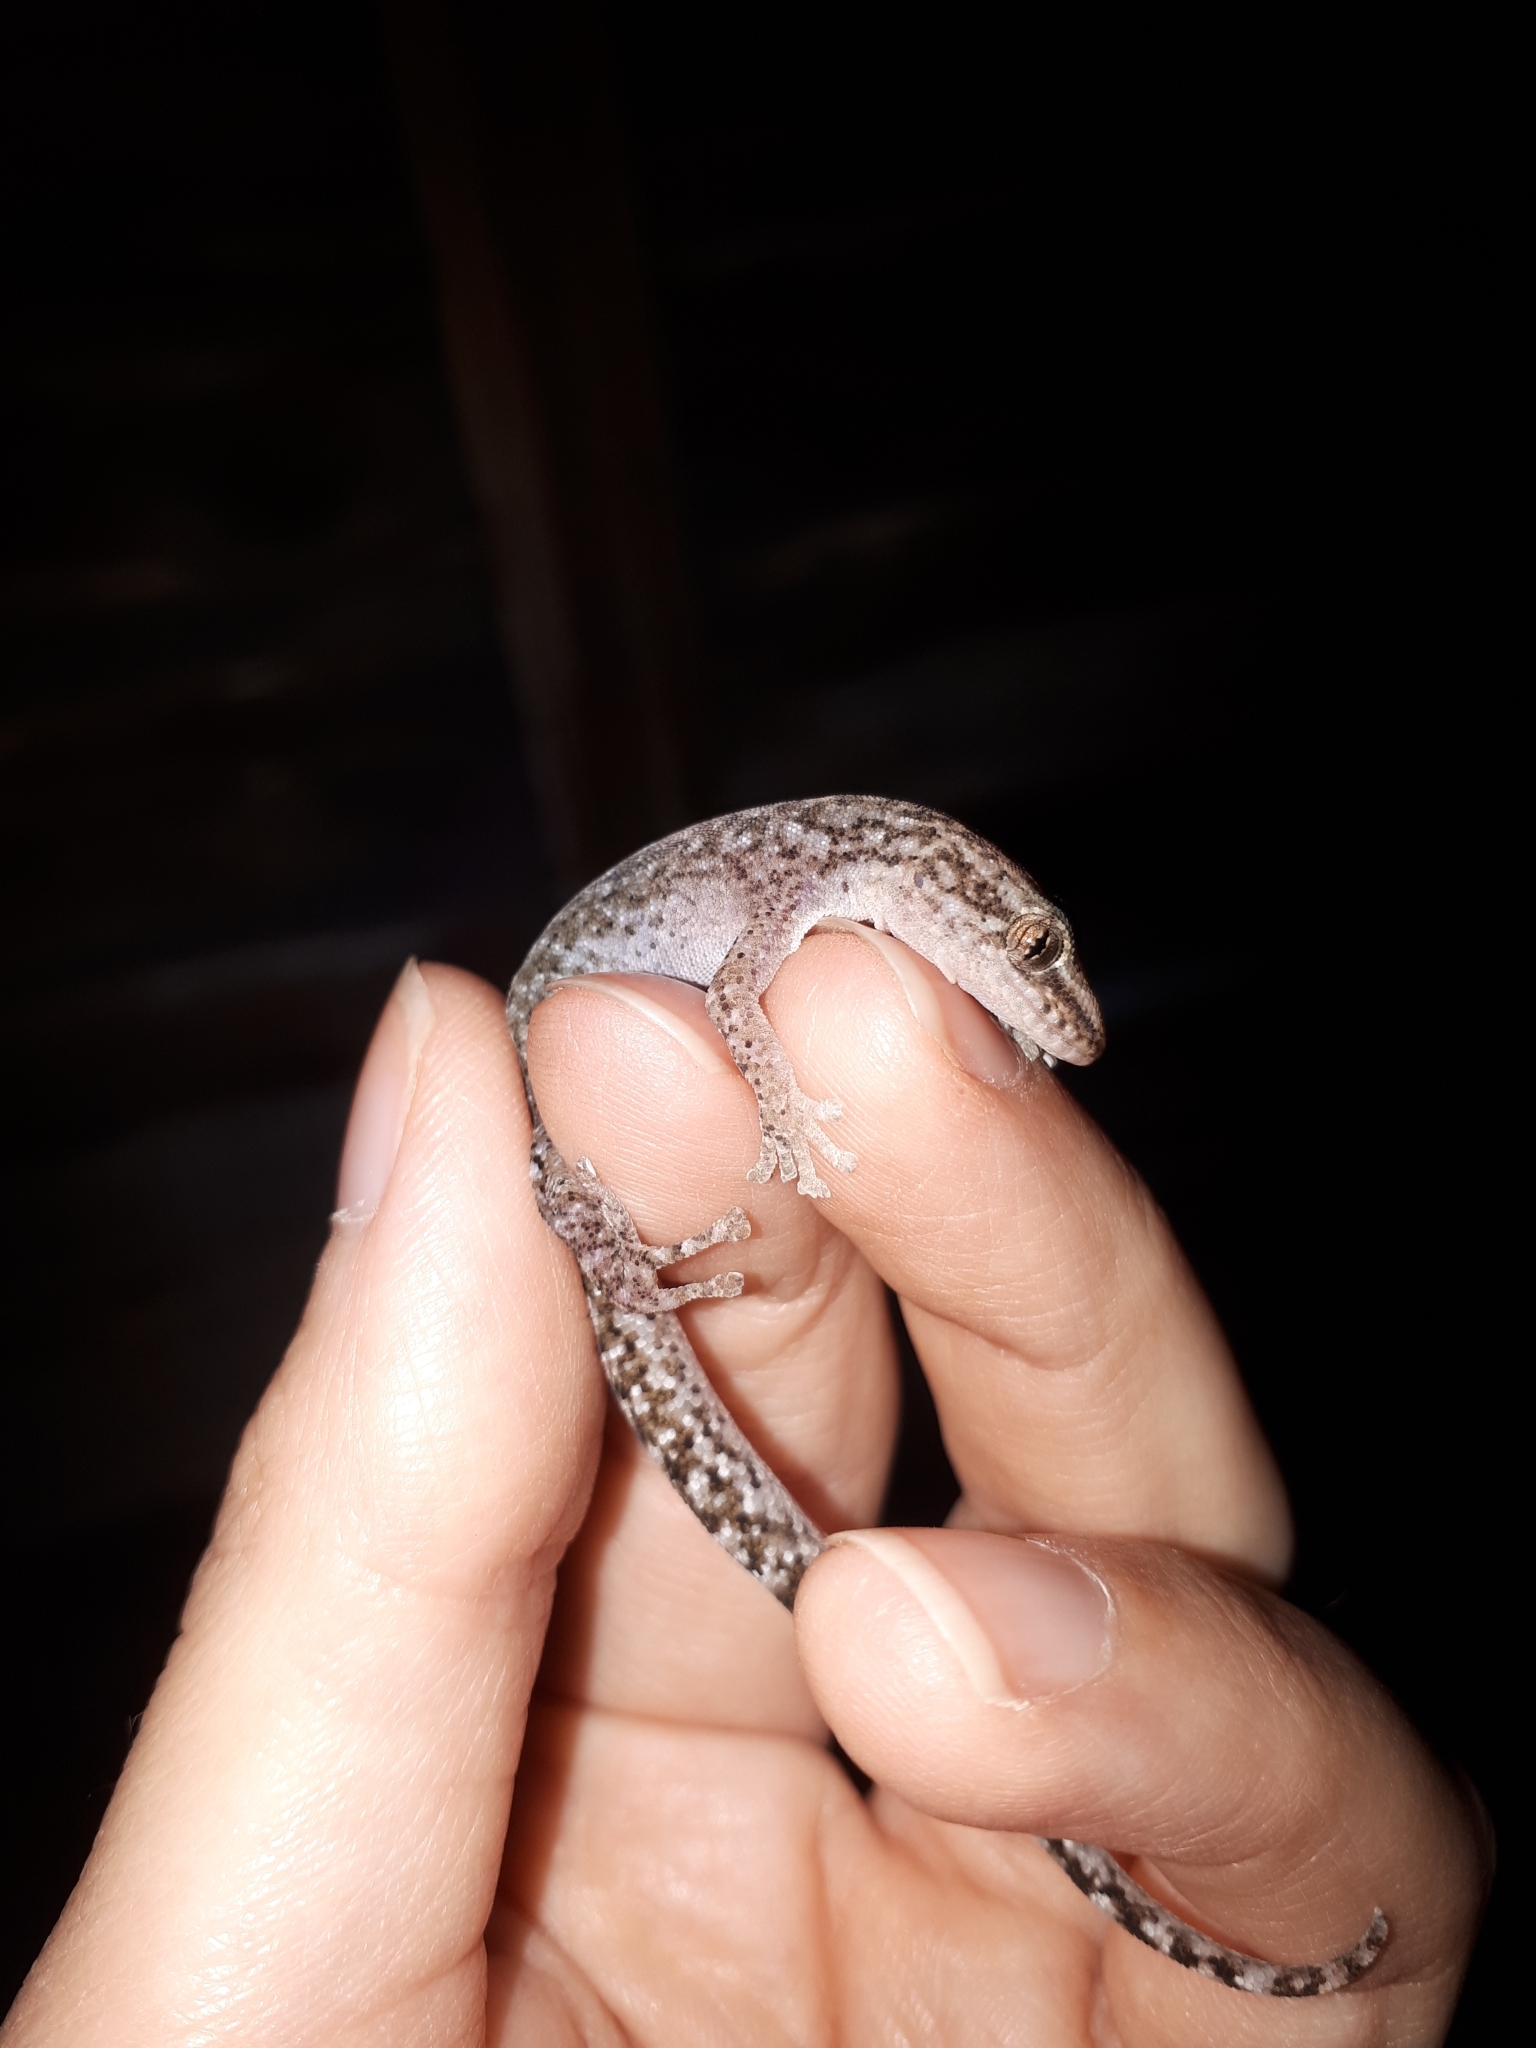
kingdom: Animalia
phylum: Chordata
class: Squamata
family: Gekkonidae
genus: Afrogecko
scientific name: Afrogecko porphyreus
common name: Marbled leaf-toed gecko
